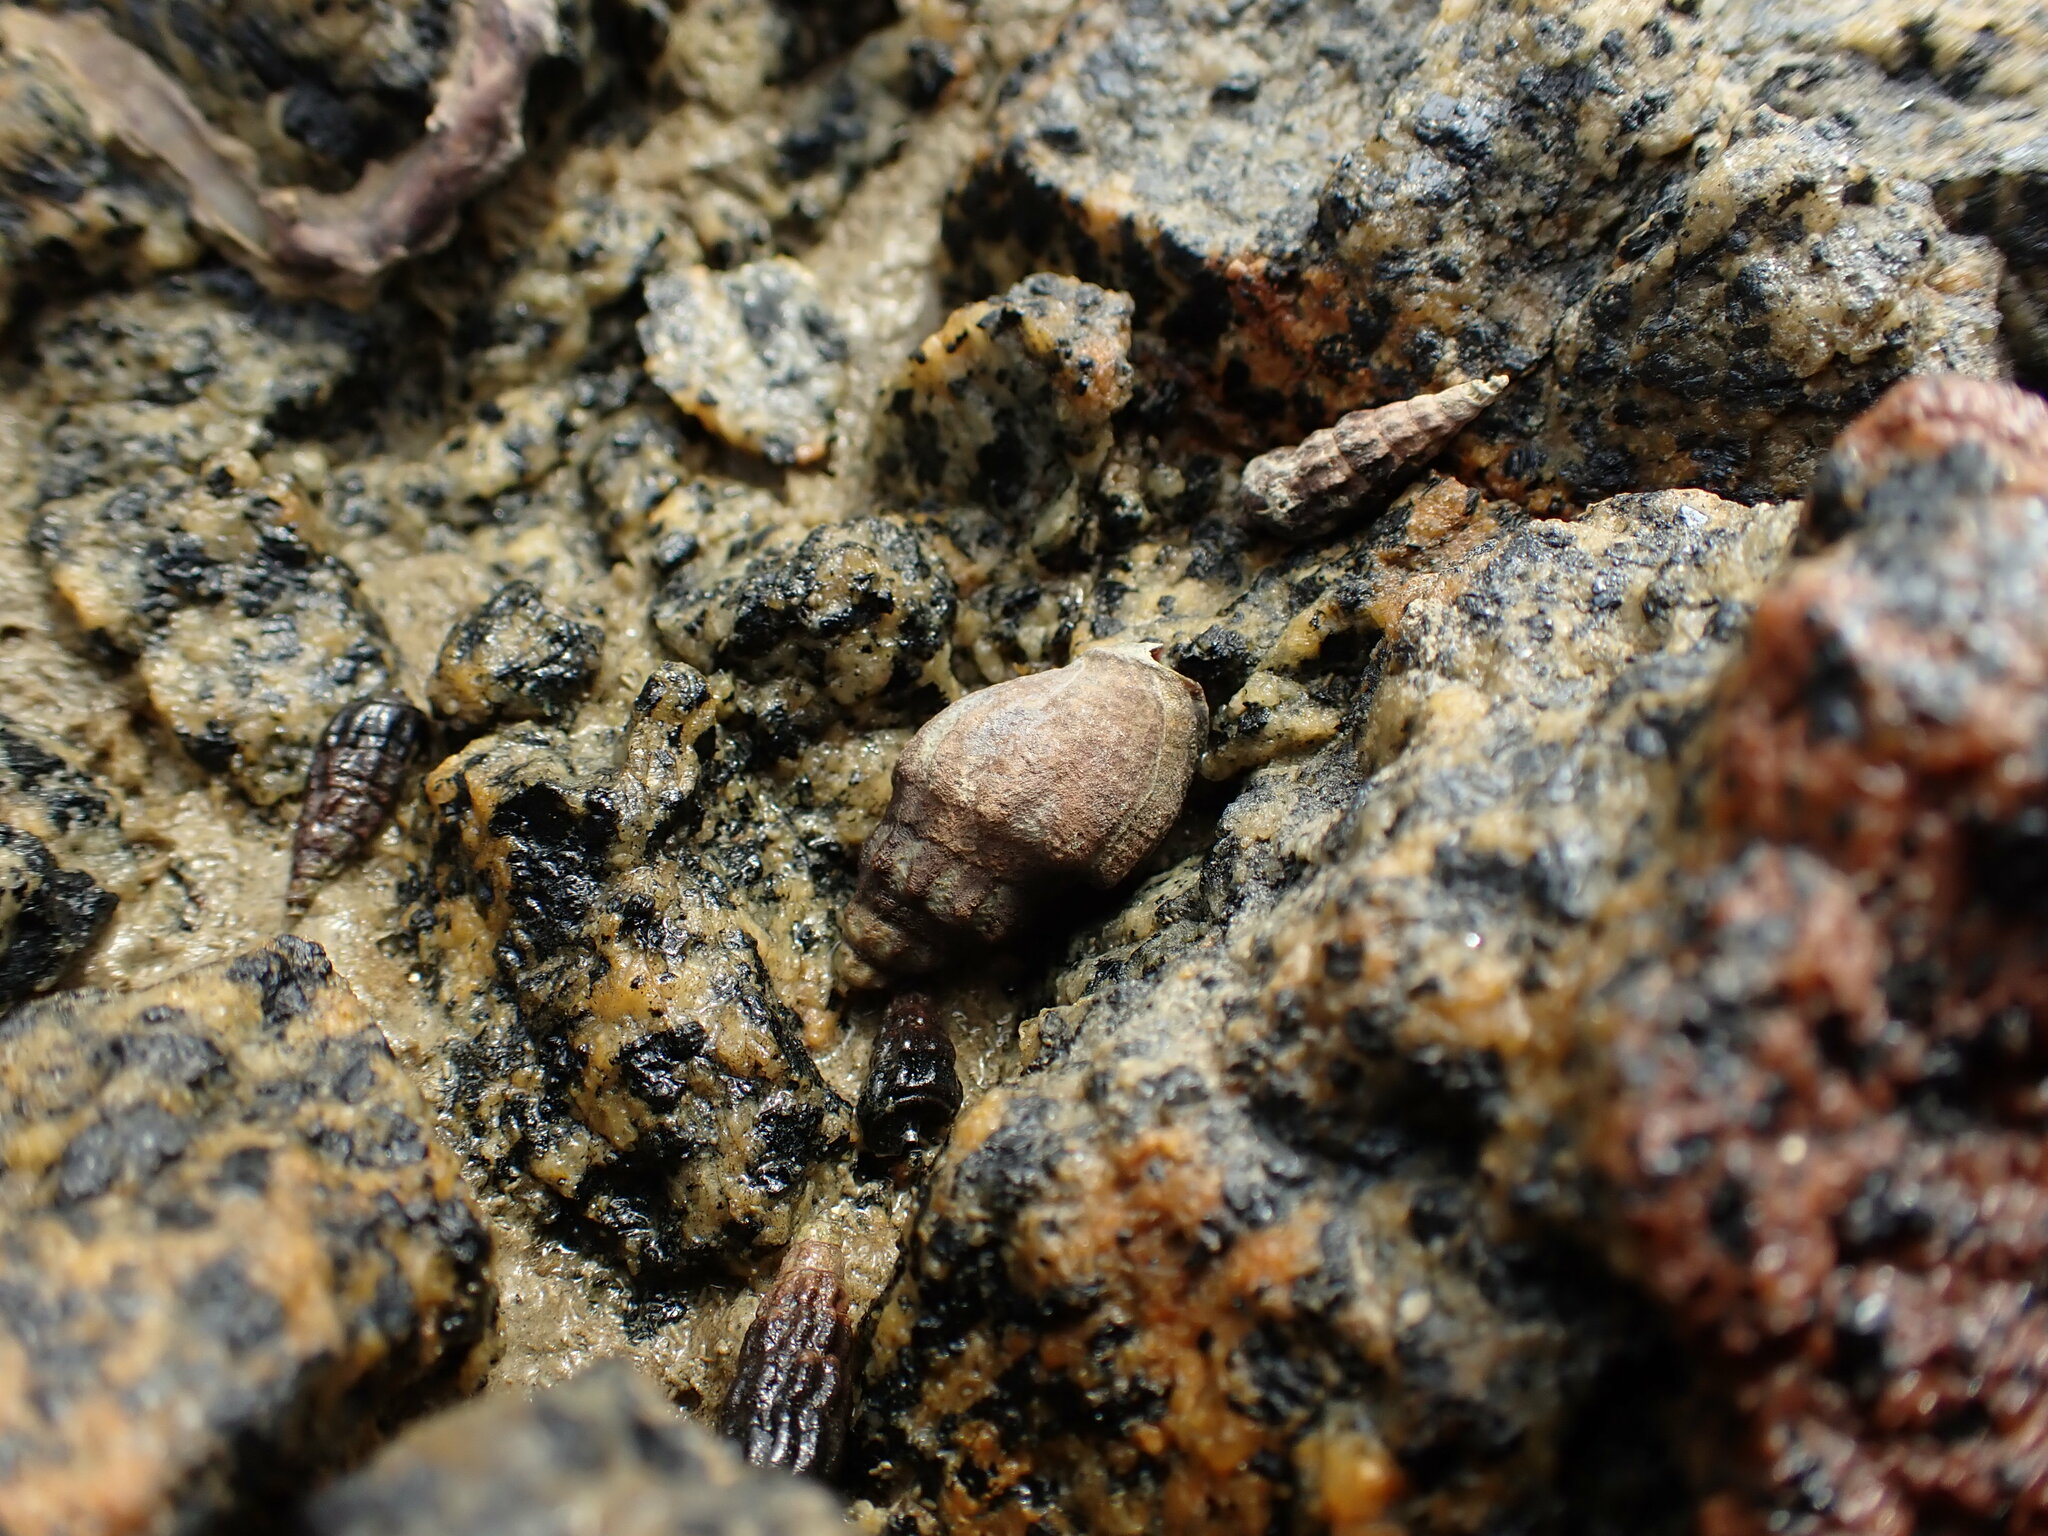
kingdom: Animalia
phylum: Mollusca
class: Gastropoda
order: Neogastropoda
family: Cominellidae
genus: Cominella
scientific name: Cominella glandiformis
